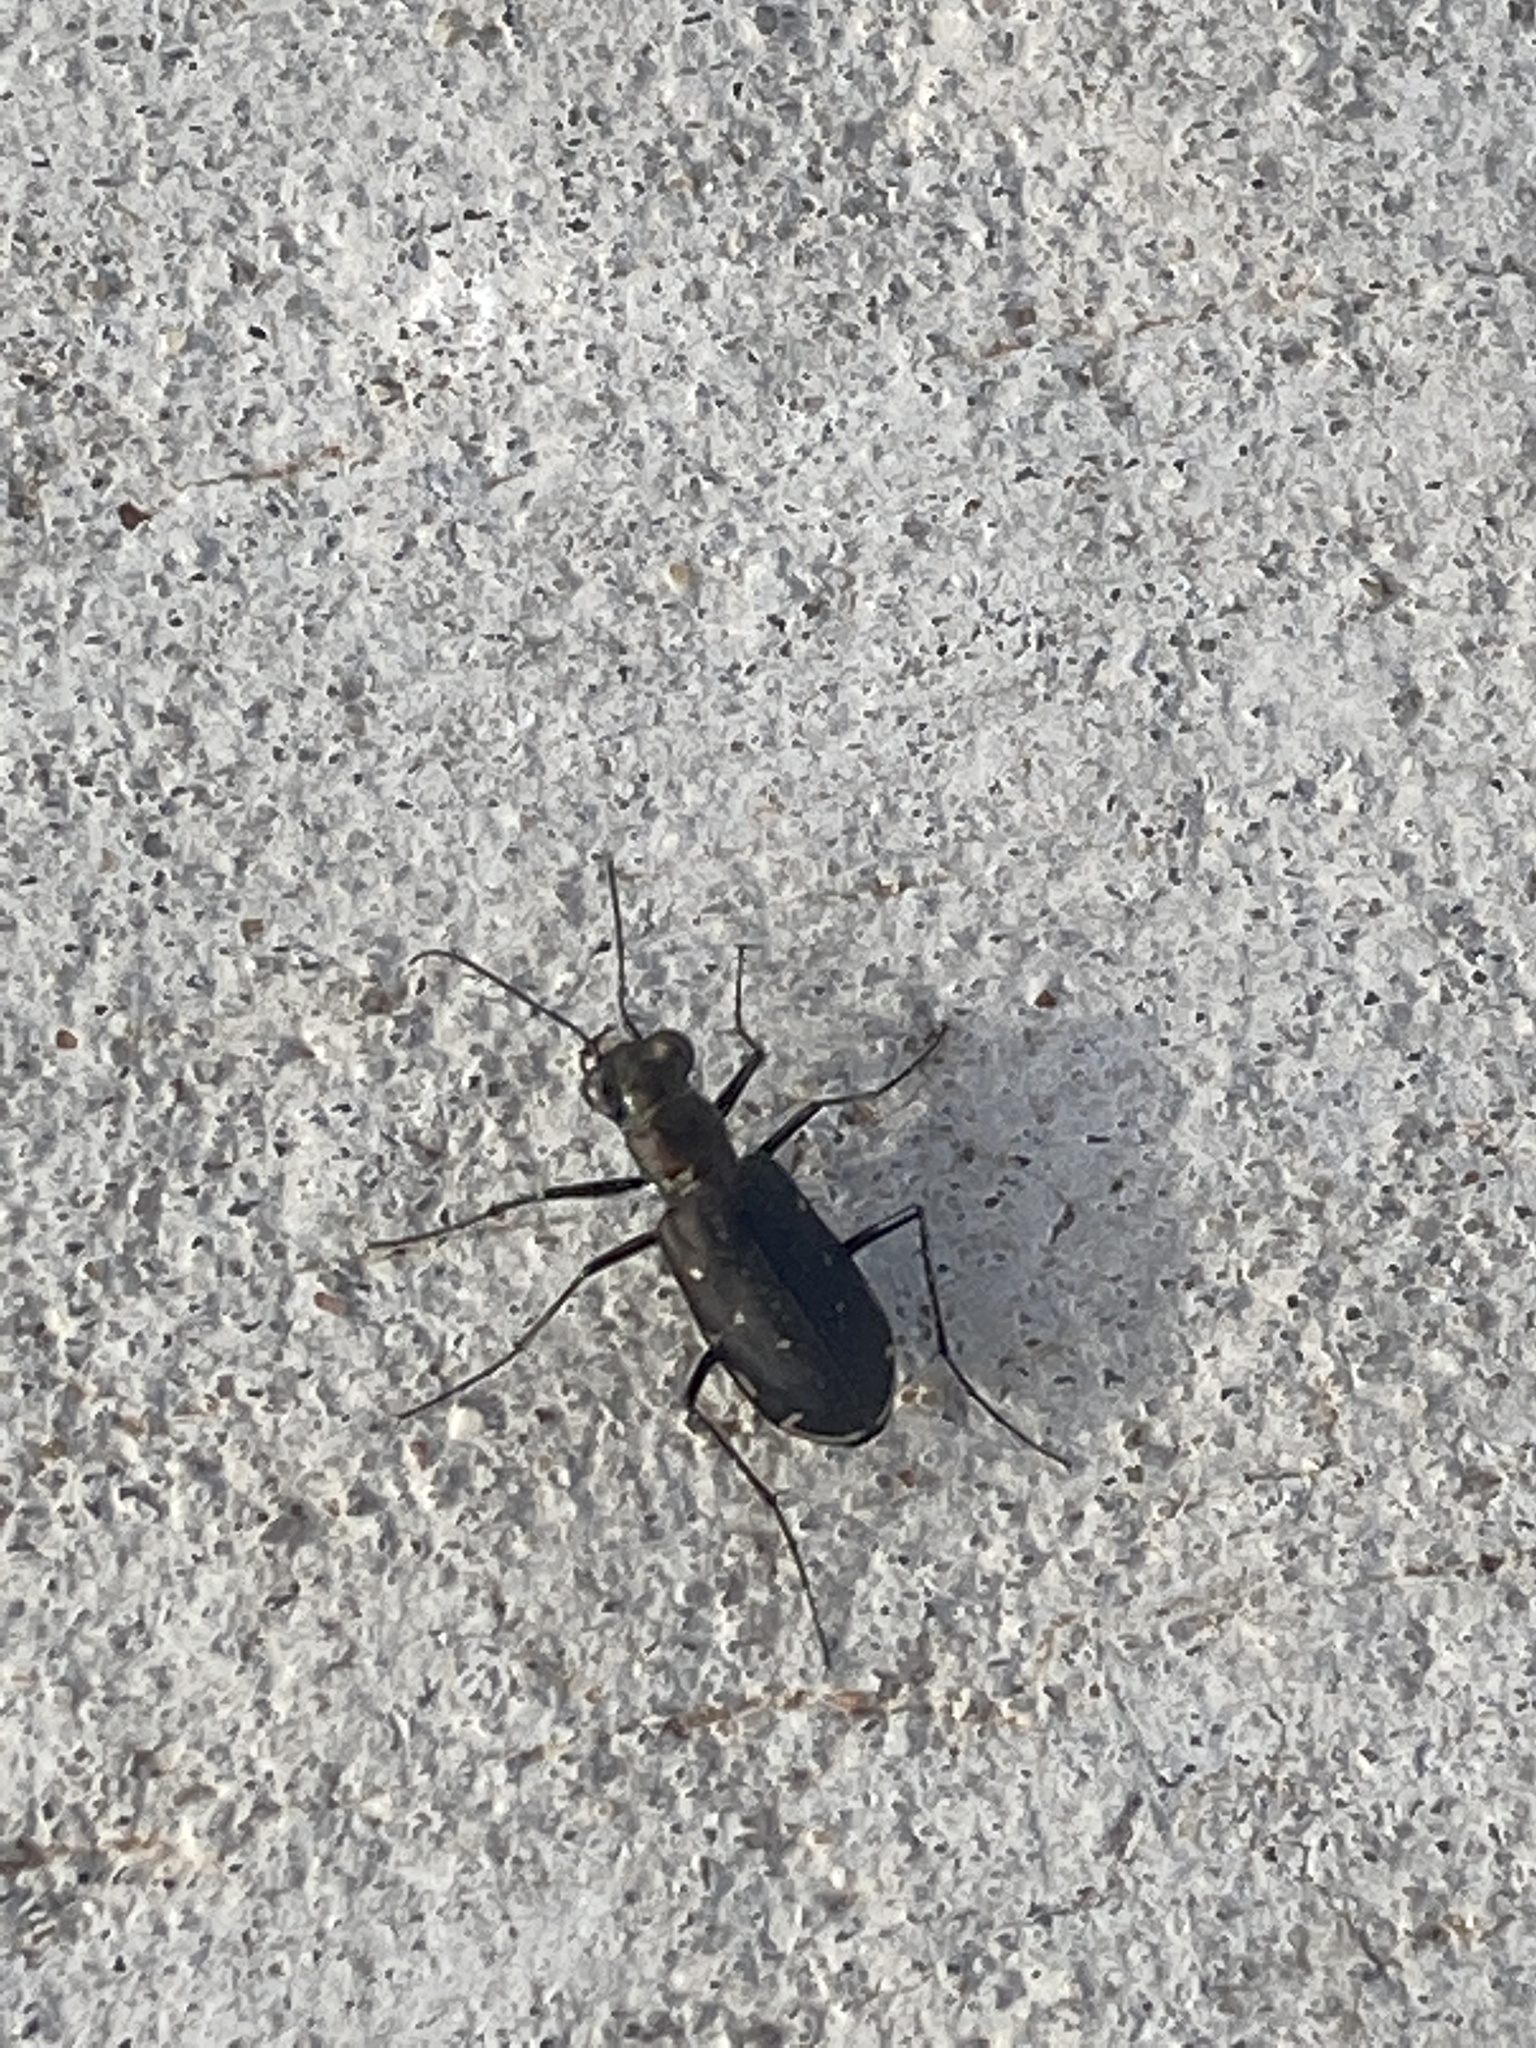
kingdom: Animalia
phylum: Arthropoda
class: Insecta
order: Coleoptera
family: Carabidae
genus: Cicindela
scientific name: Cicindela punctulata
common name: Punctured tiger beetle
